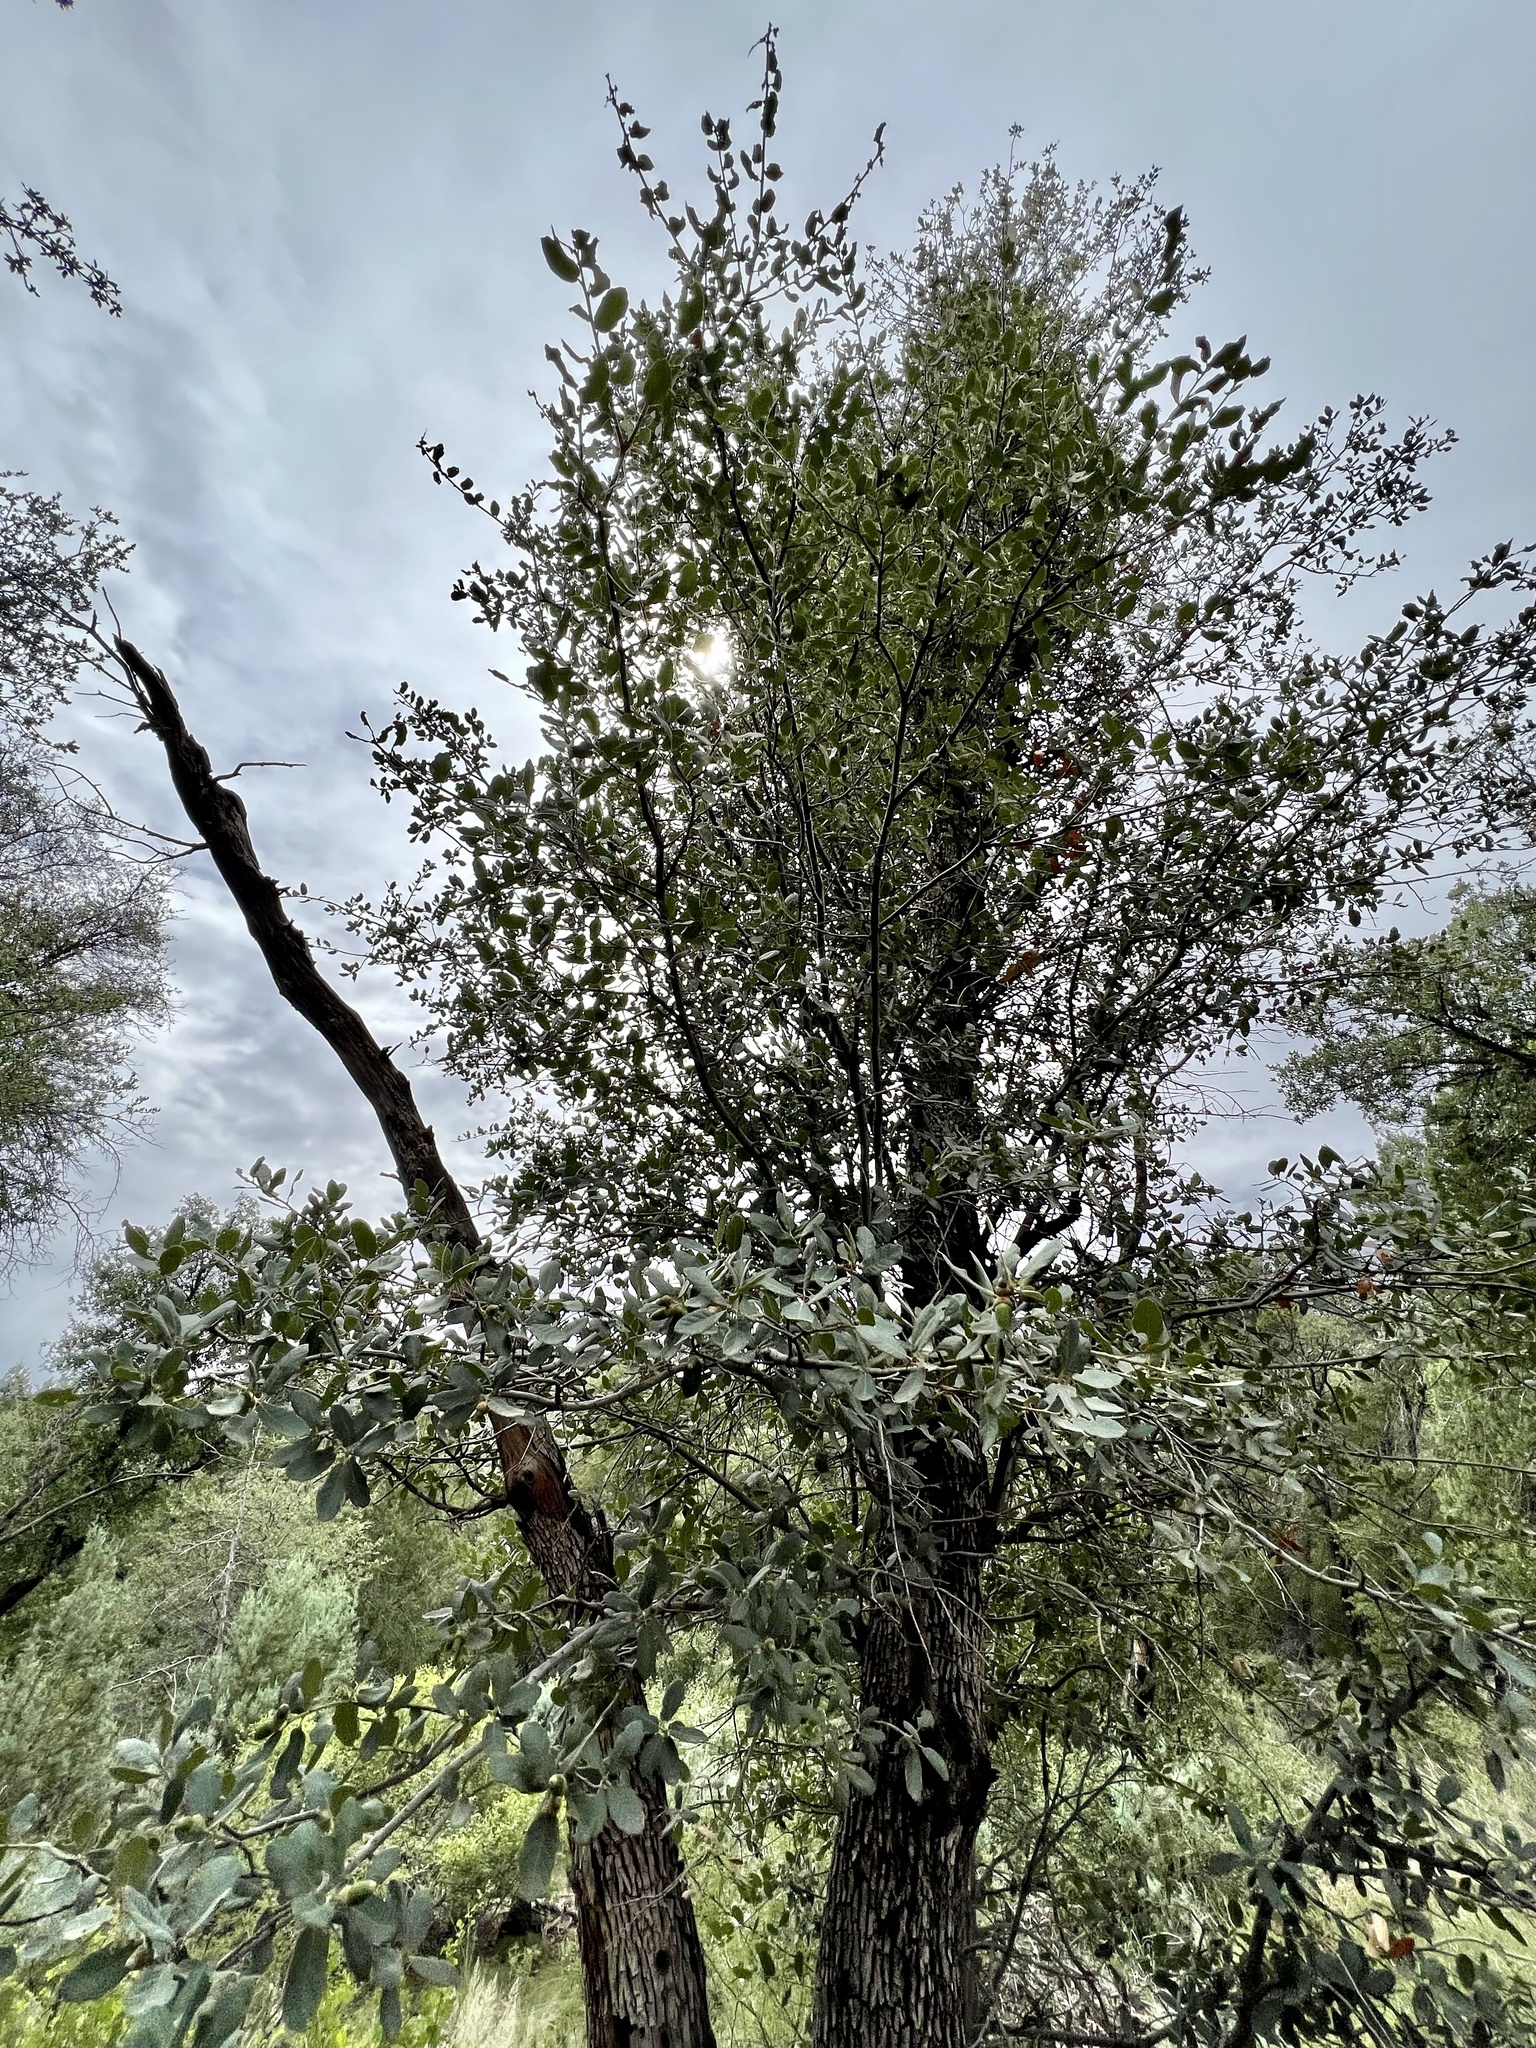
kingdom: Plantae
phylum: Tracheophyta
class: Magnoliopsida
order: Fagales
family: Fagaceae
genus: Quercus
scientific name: Quercus arizonica
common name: Arizona white oak
